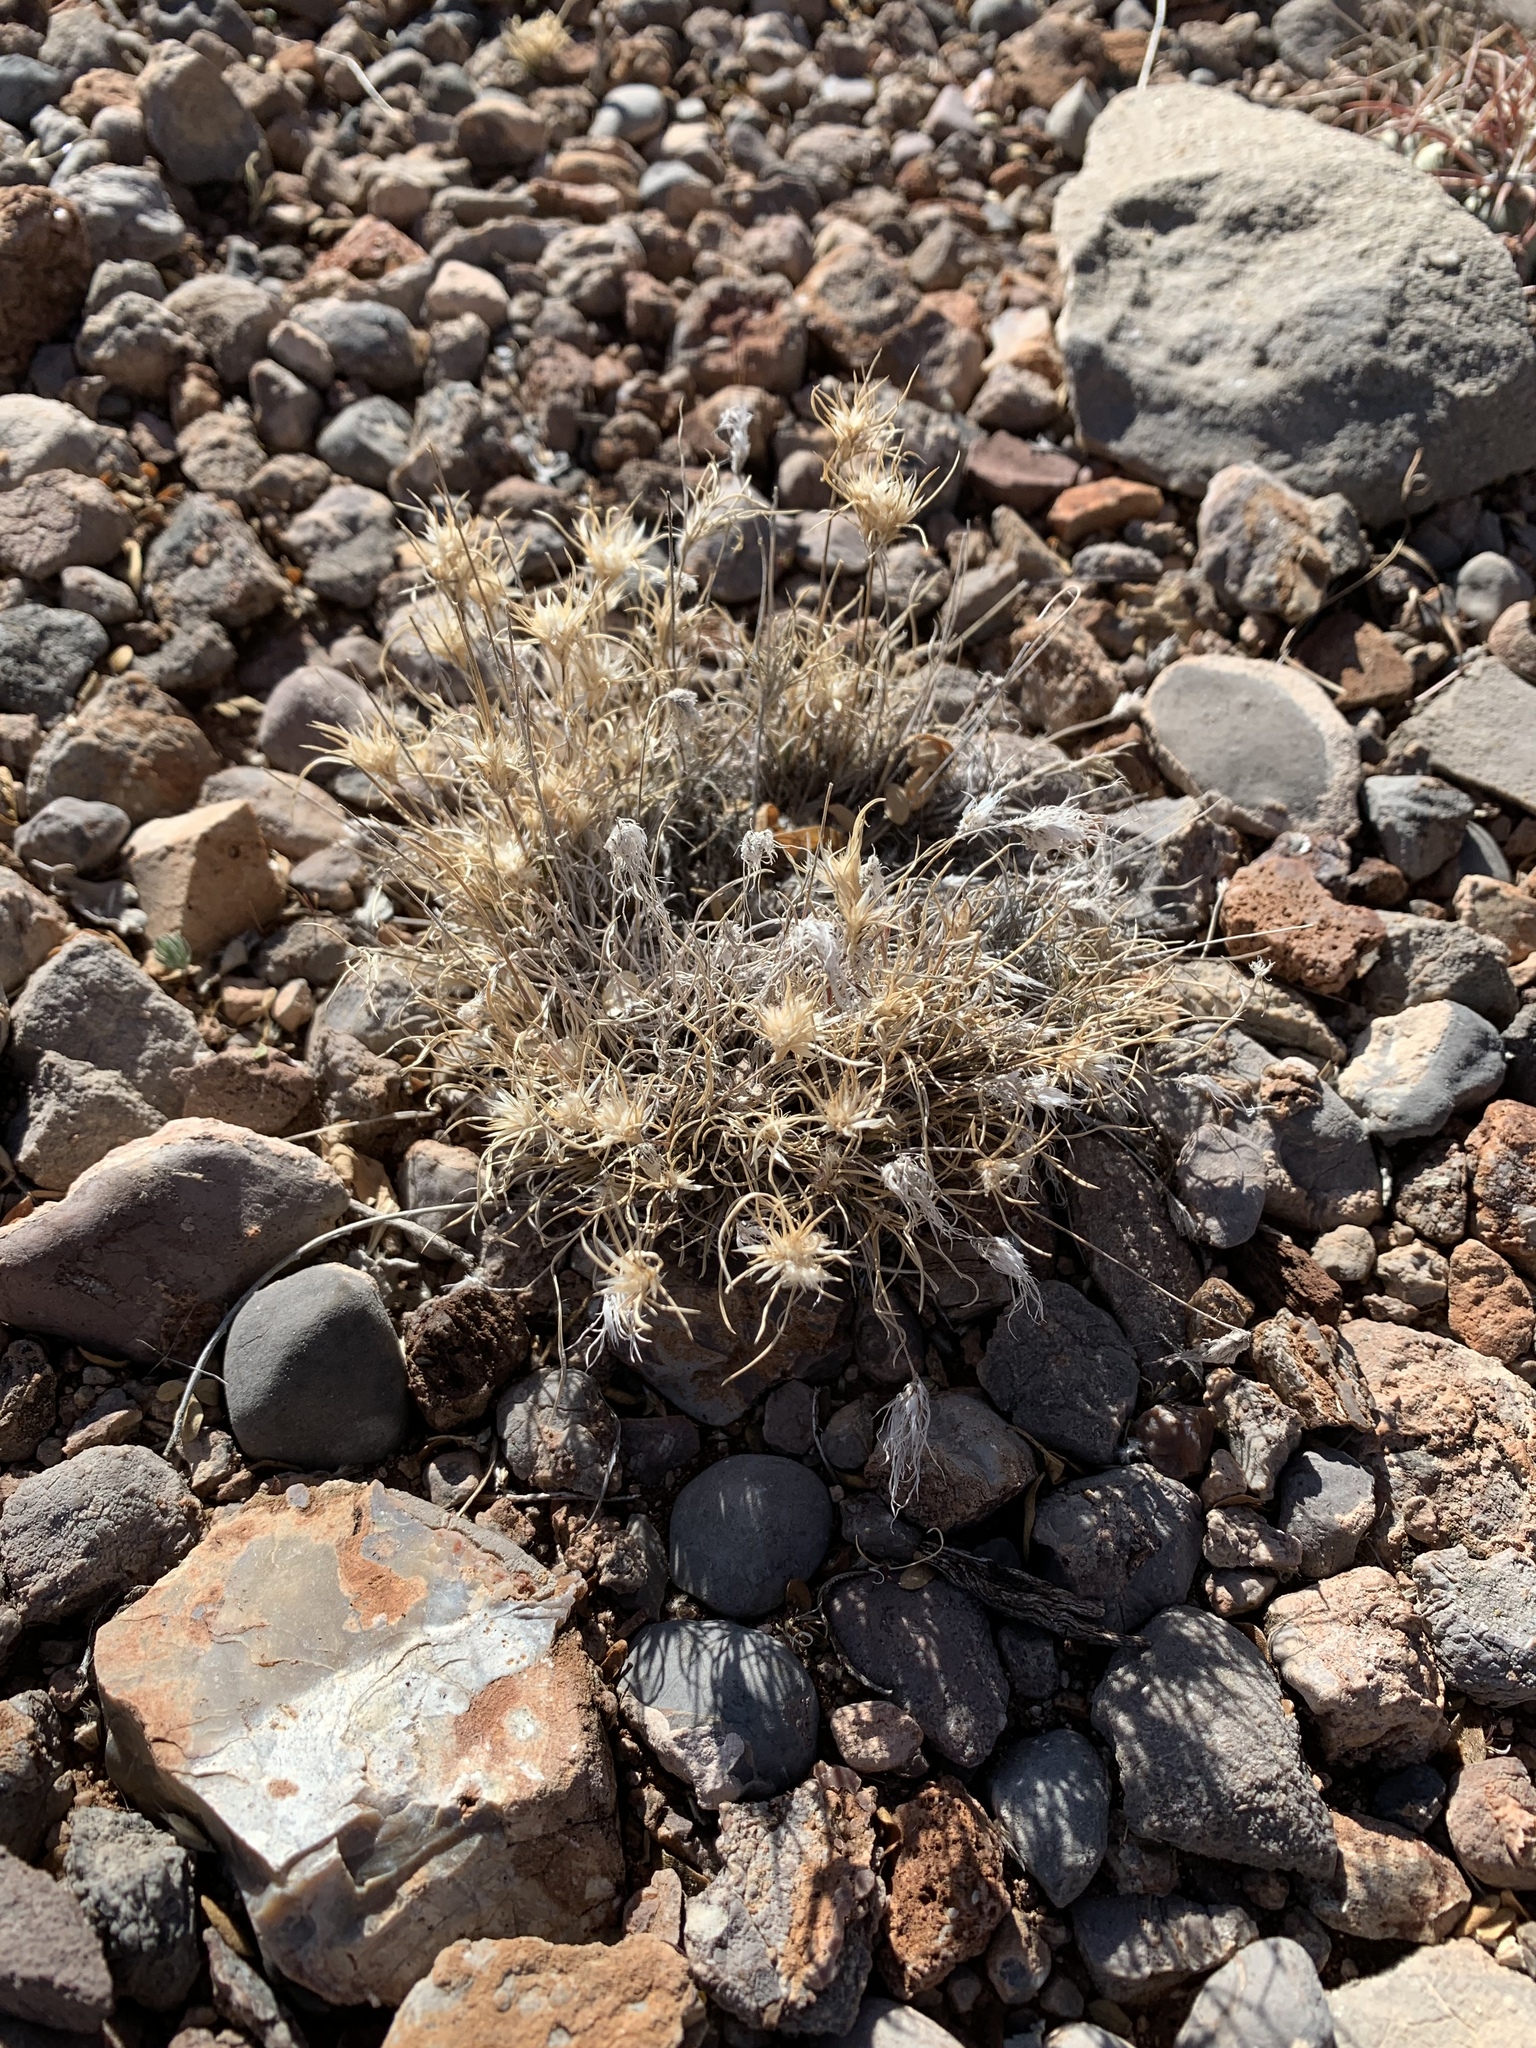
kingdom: Plantae
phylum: Tracheophyta
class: Liliopsida
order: Poales
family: Poaceae
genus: Dasyochloa
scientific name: Dasyochloa pulchella
